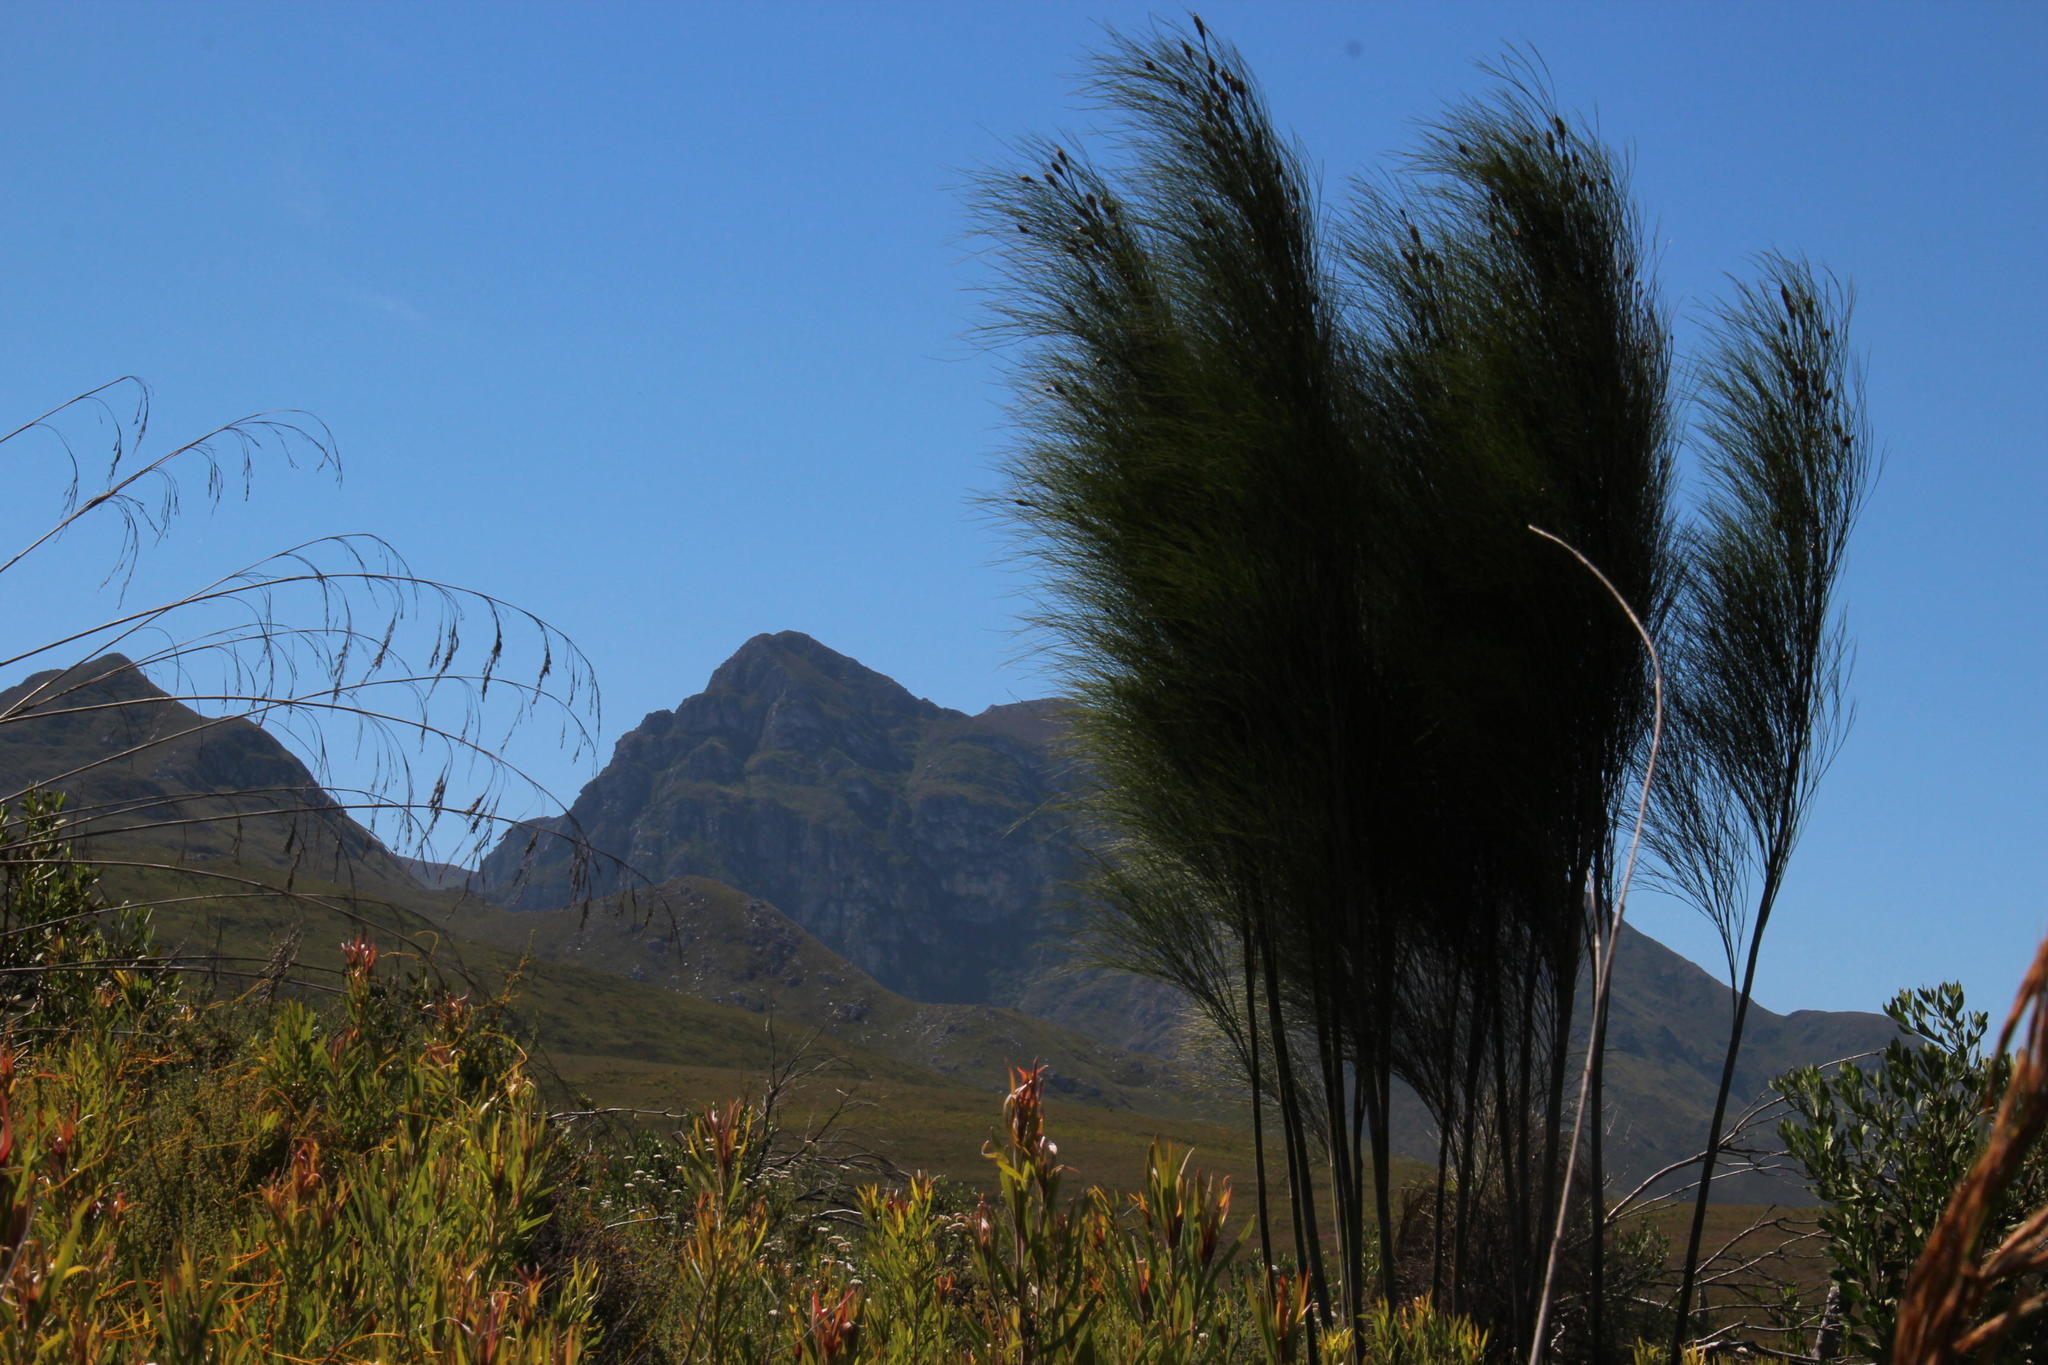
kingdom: Plantae
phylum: Tracheophyta
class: Liliopsida
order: Poales
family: Restionaceae
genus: Cannomois
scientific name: Cannomois grandis
